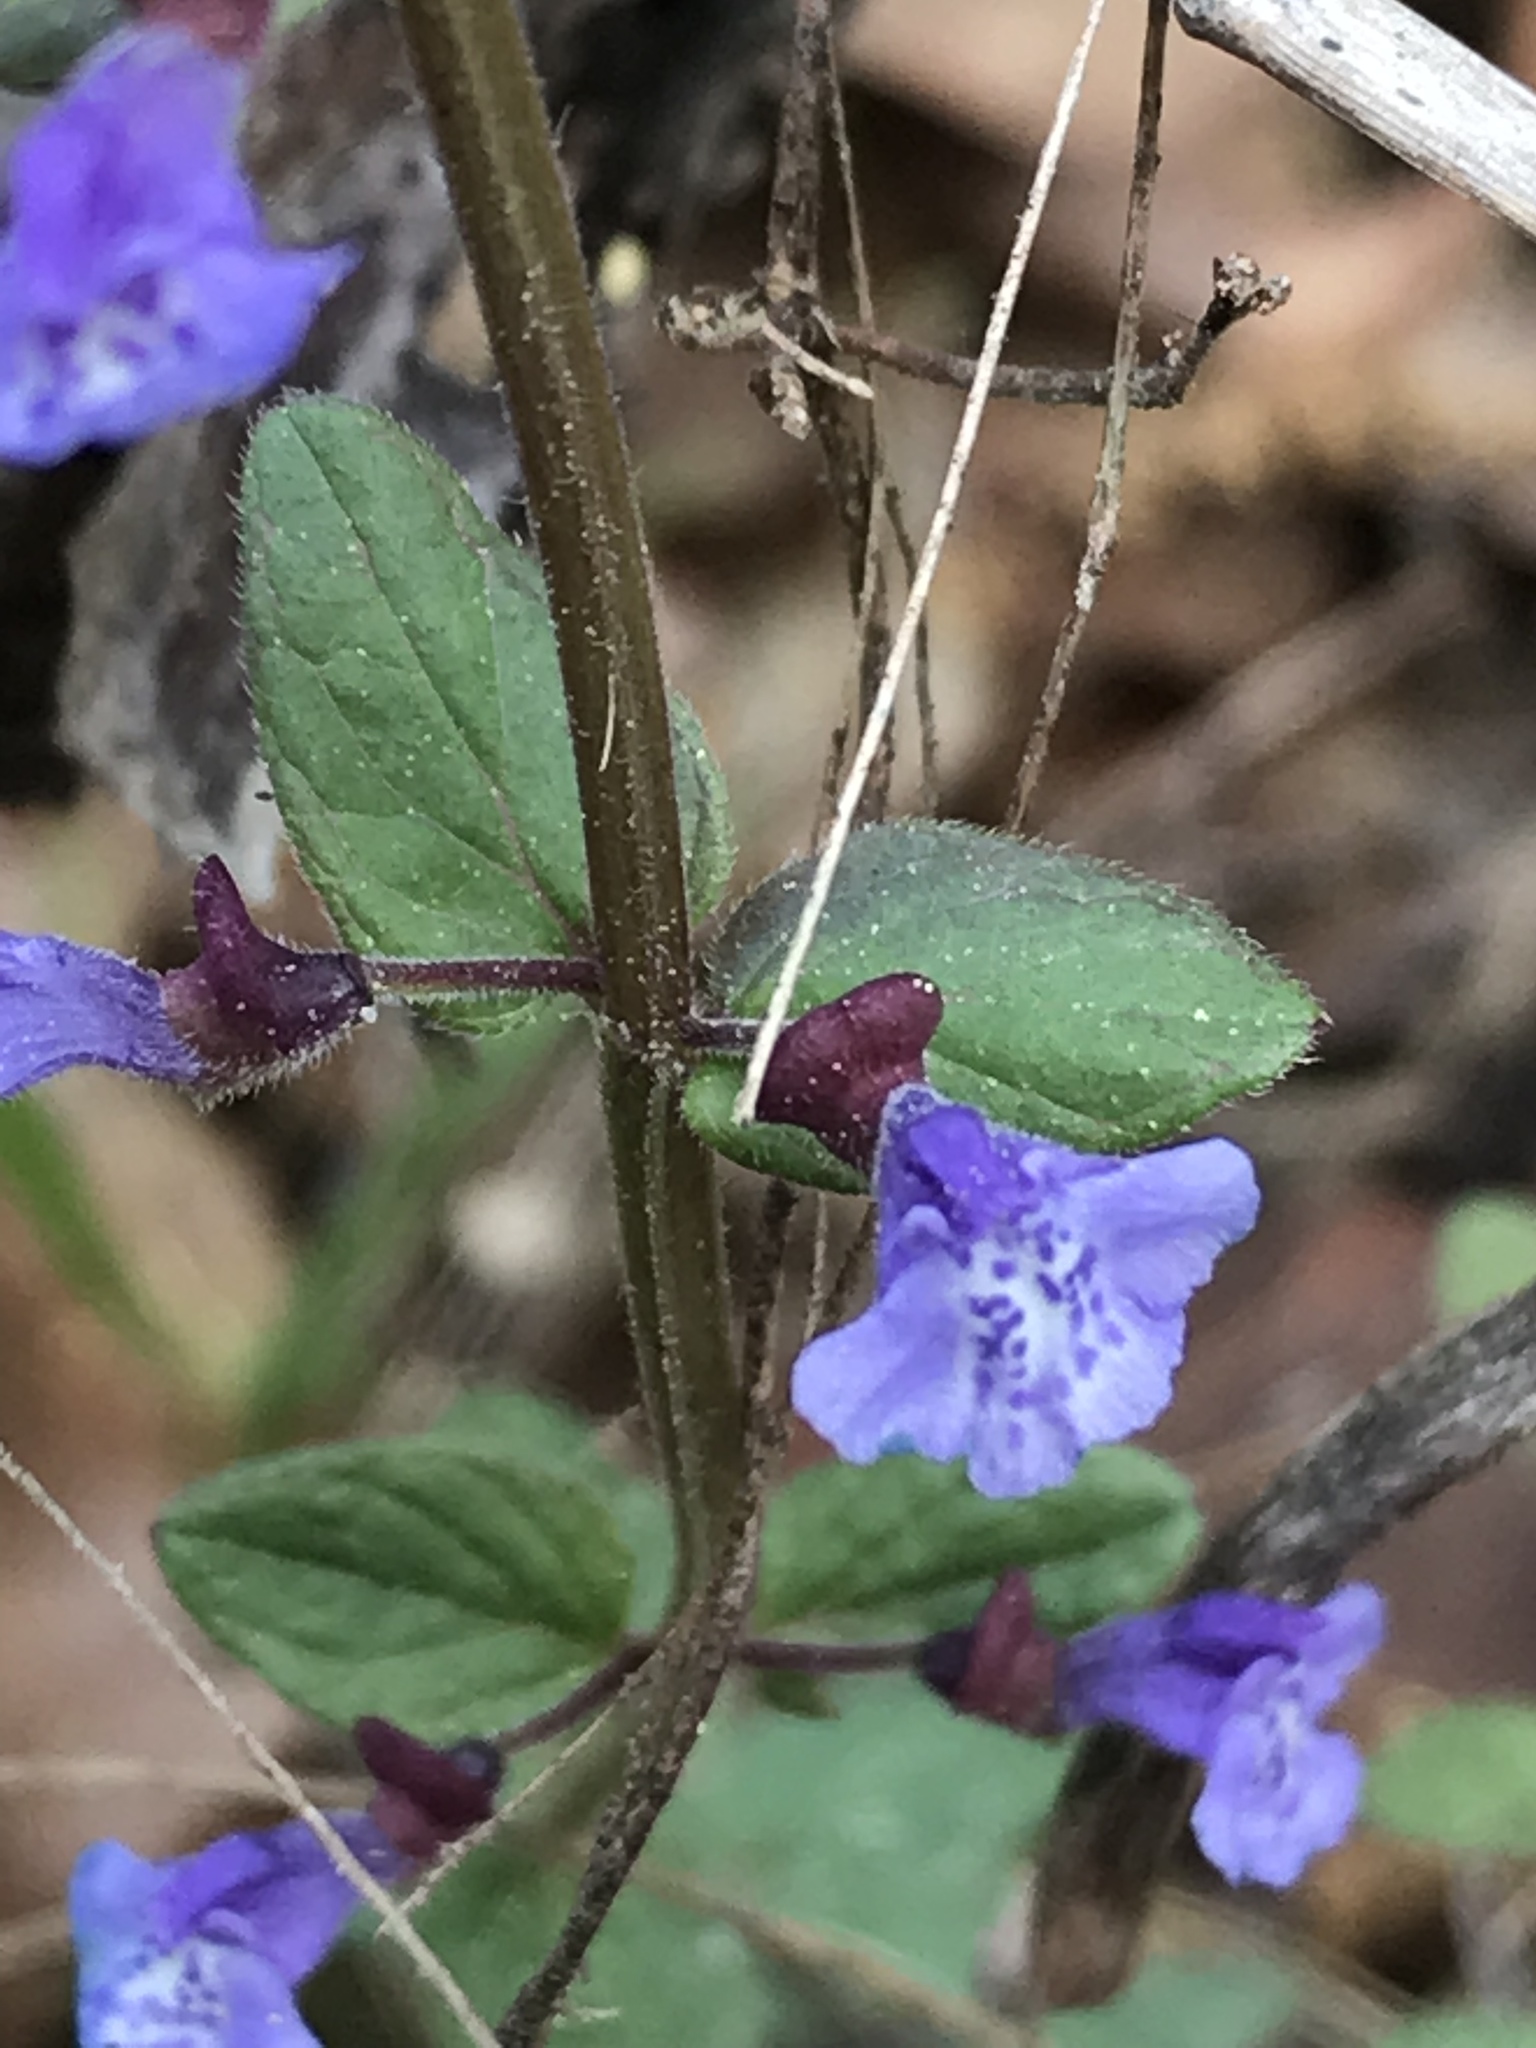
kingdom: Plantae
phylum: Tracheophyta
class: Magnoliopsida
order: Lamiales
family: Lamiaceae
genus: Scutellaria
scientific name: Scutellaria parvula
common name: Little scullcap
